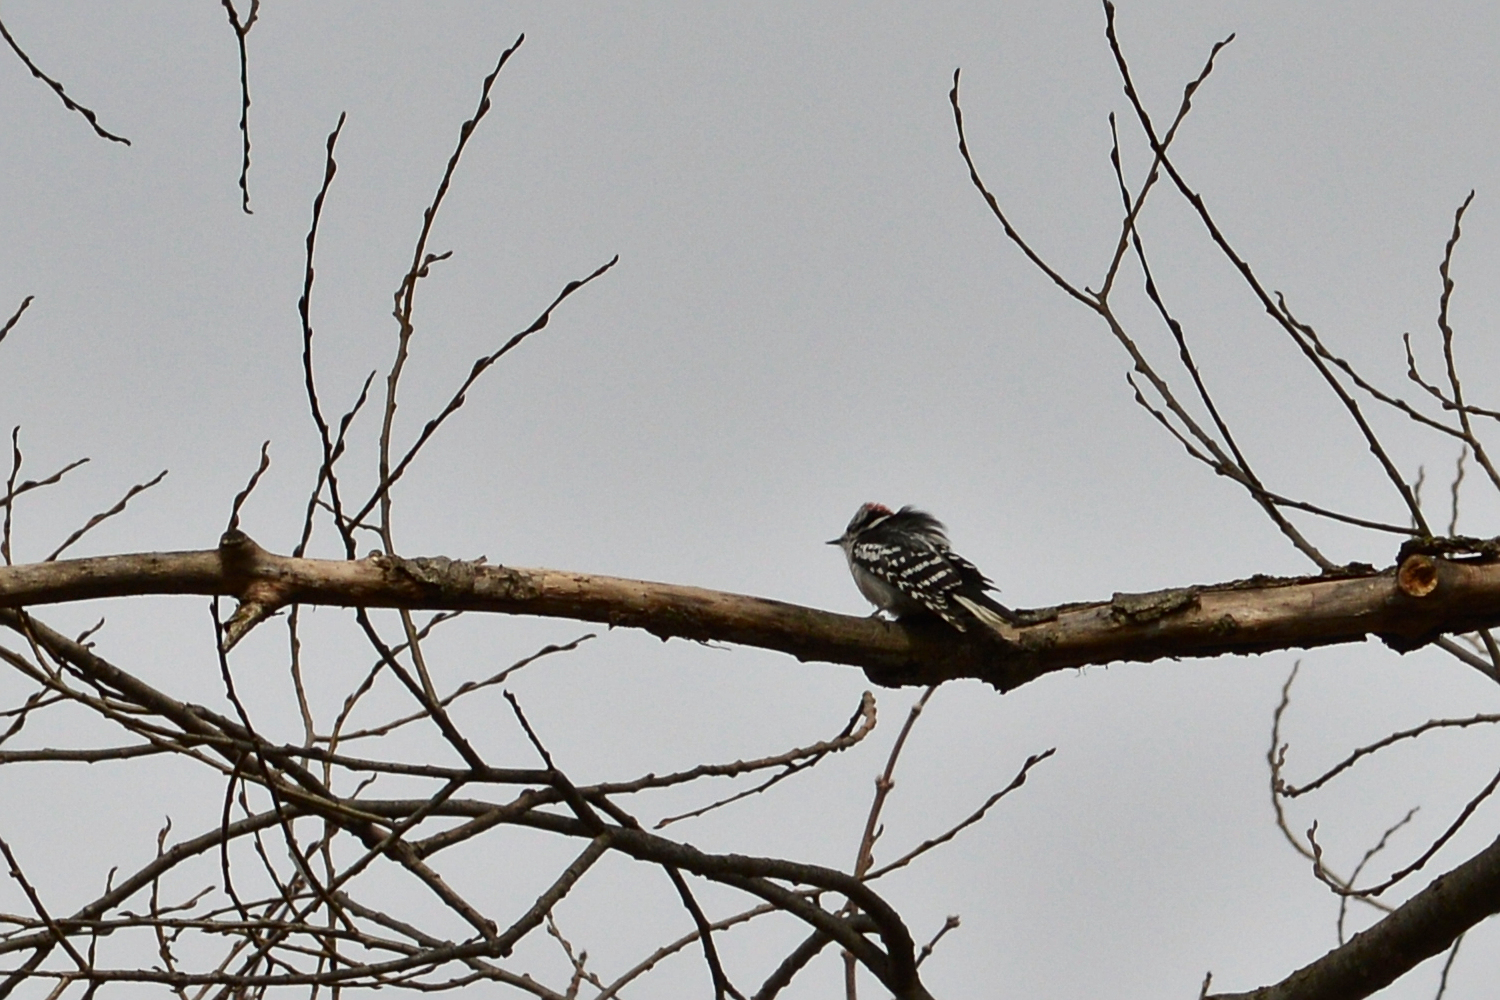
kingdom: Animalia
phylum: Chordata
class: Aves
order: Piciformes
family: Picidae
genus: Dryobates
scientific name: Dryobates pubescens
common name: Downy woodpecker
